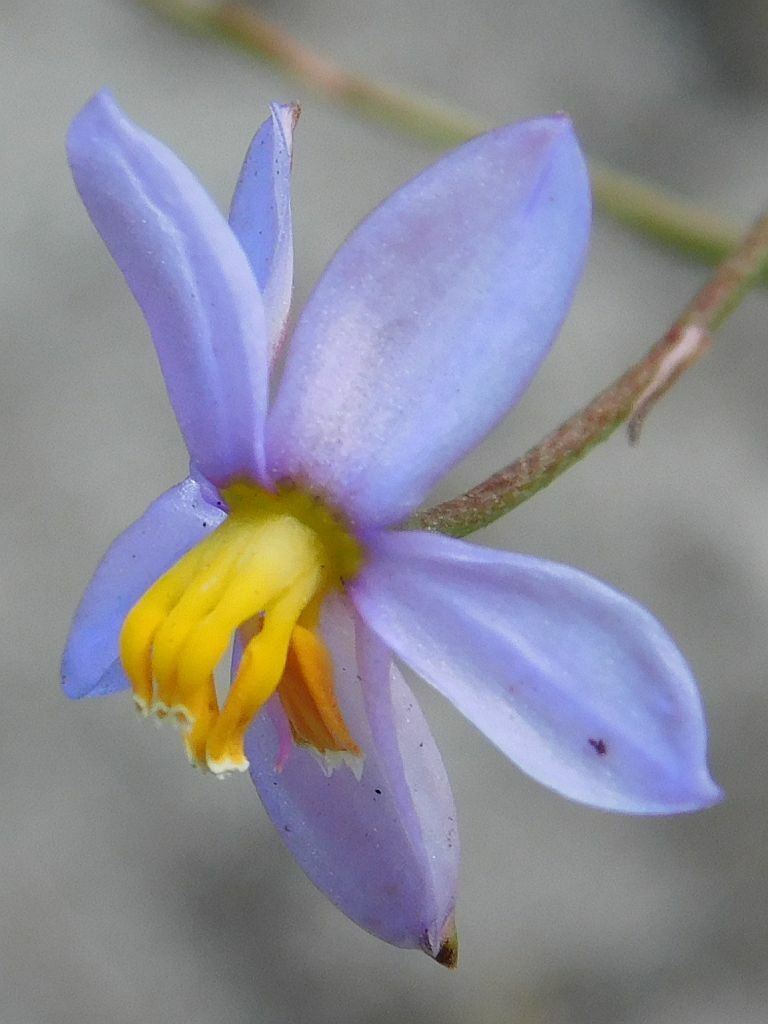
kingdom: Plantae
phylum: Tracheophyta
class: Liliopsida
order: Asparagales
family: Tecophilaeaceae
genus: Cyanella
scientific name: Cyanella hyacinthoides
